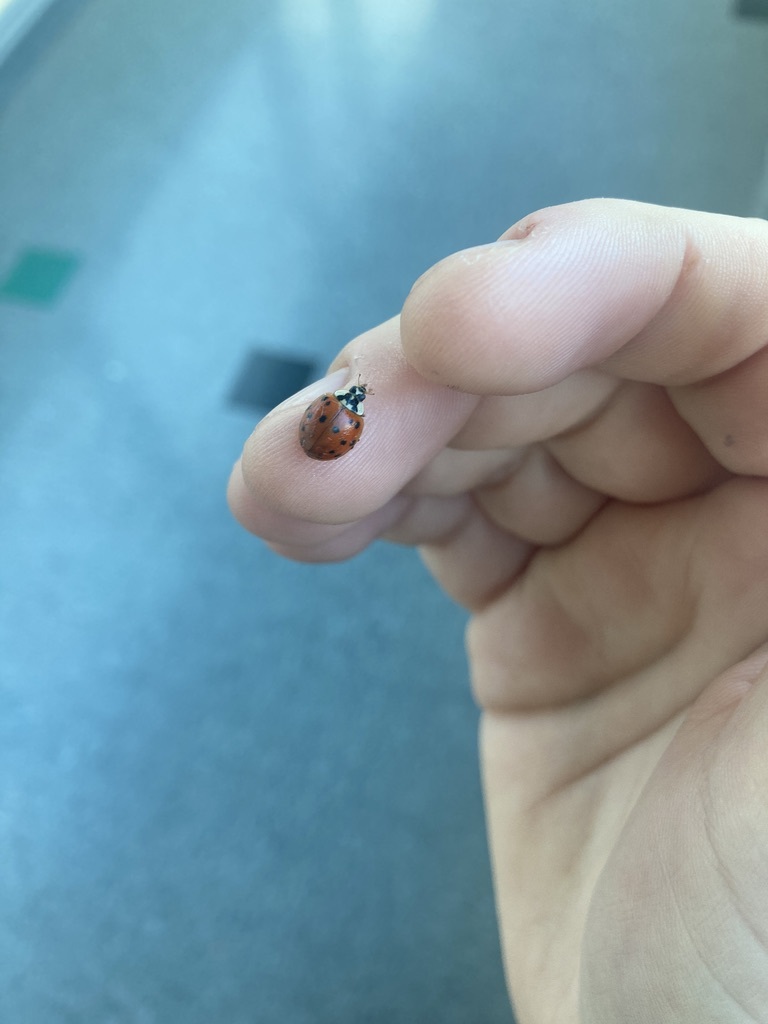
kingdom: Animalia
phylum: Arthropoda
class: Insecta
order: Coleoptera
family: Coccinellidae
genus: Harmonia
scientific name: Harmonia axyridis
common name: Harlequin ladybird
